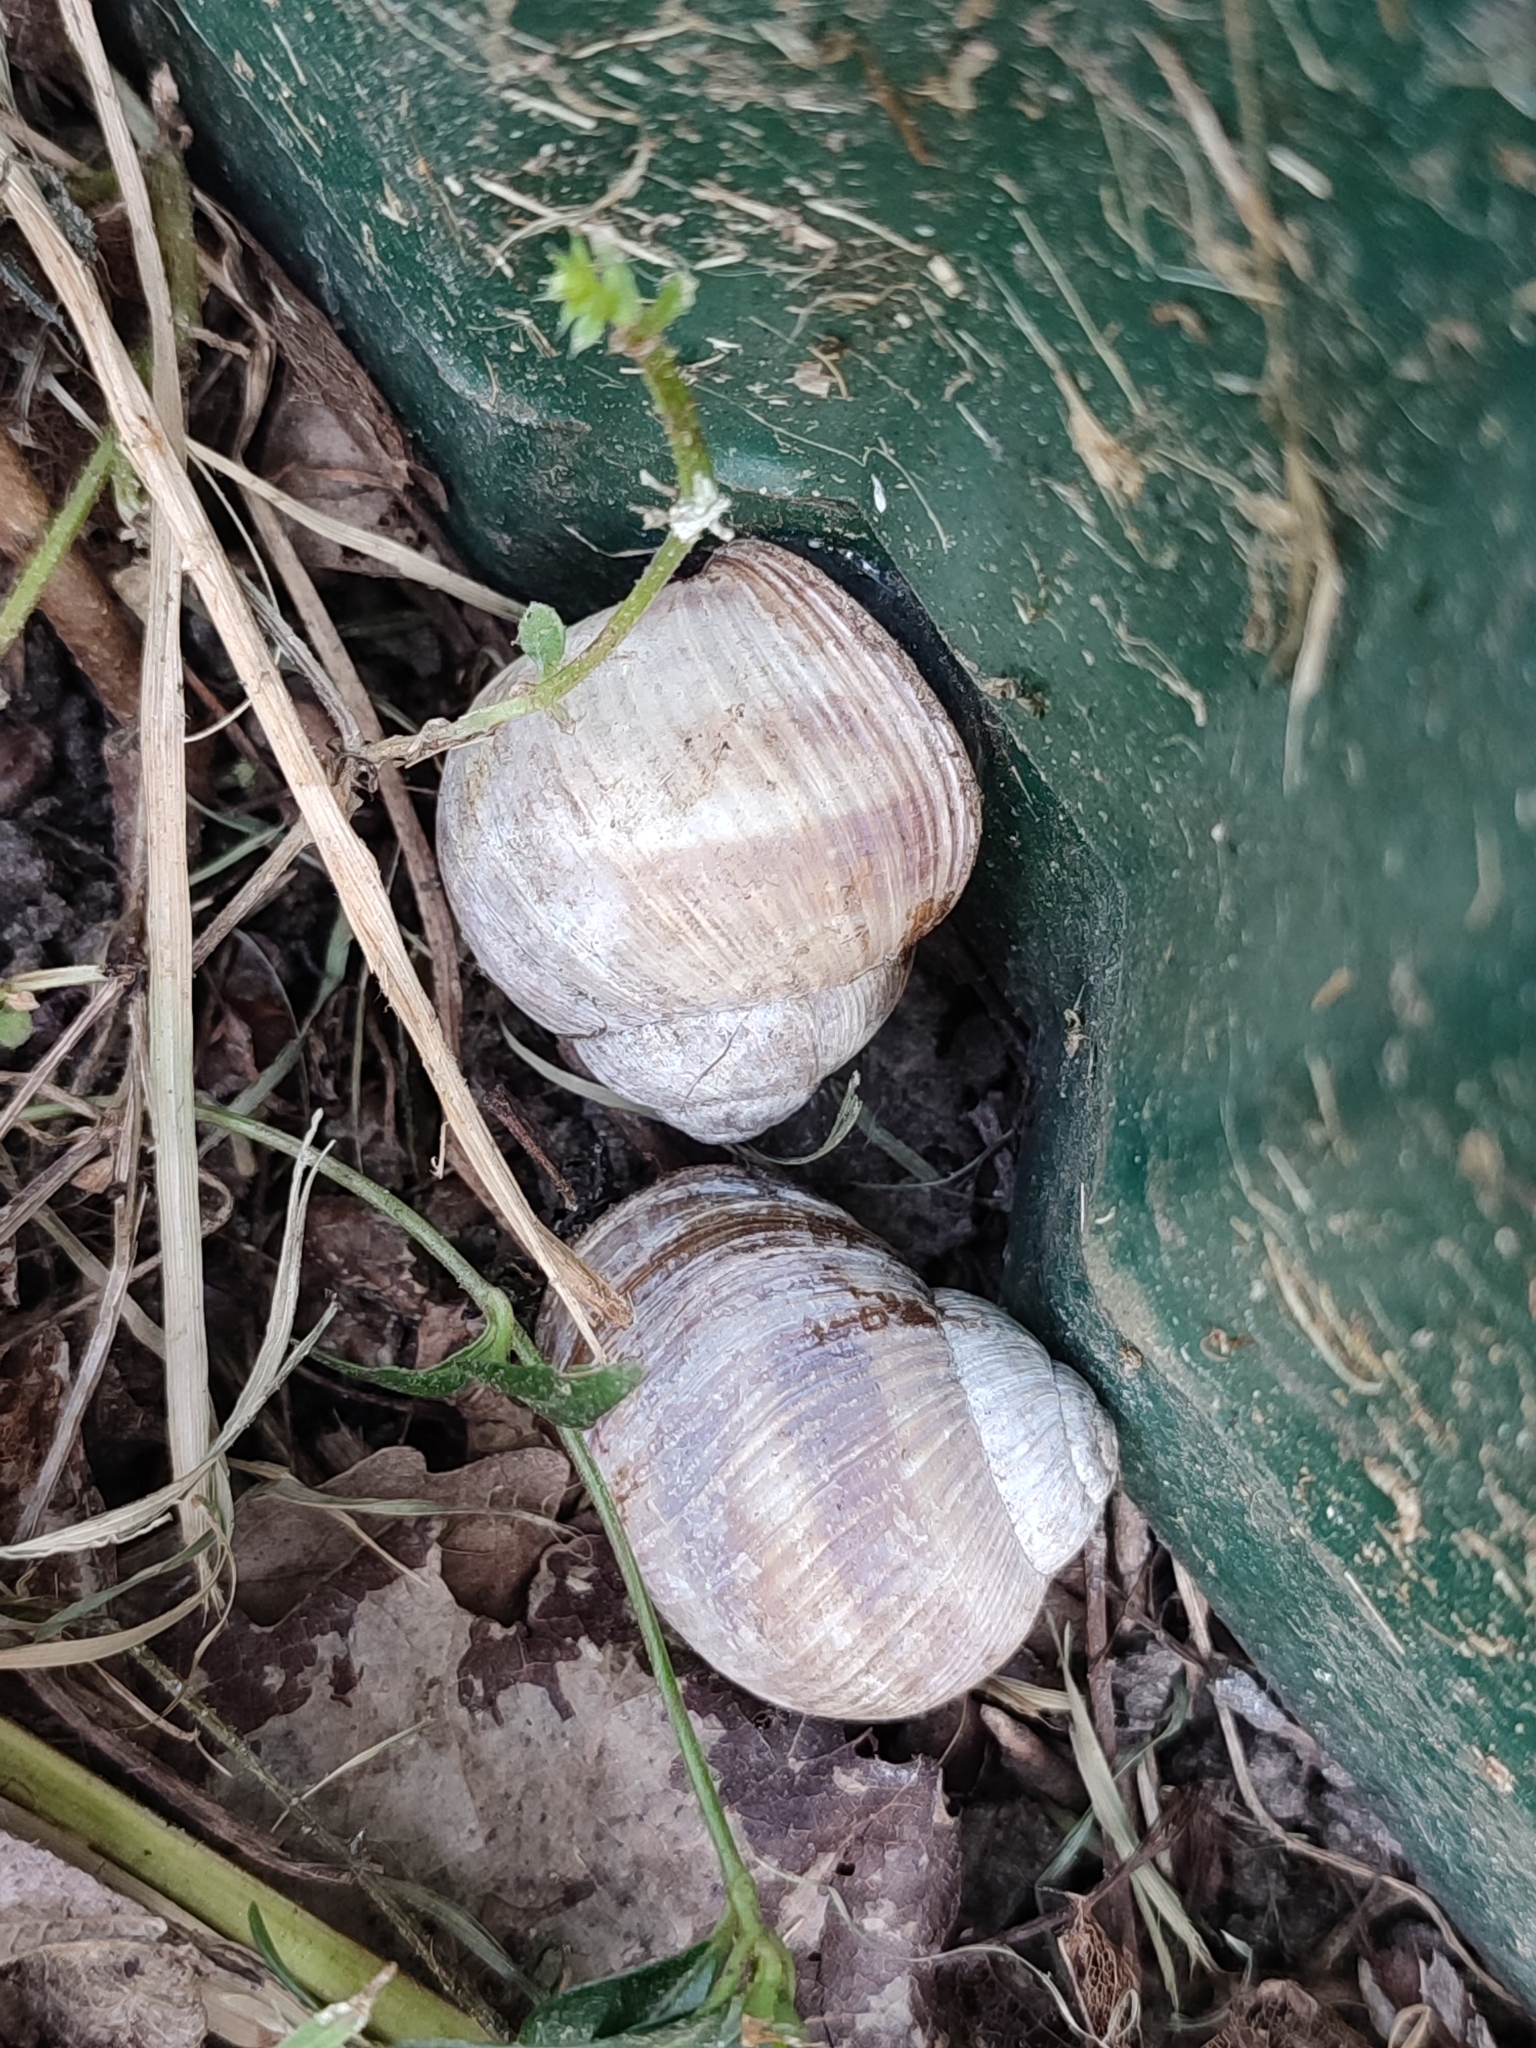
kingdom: Animalia
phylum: Mollusca
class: Gastropoda
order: Stylommatophora
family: Helicidae
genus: Helix
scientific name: Helix pomatia
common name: Roman snail
